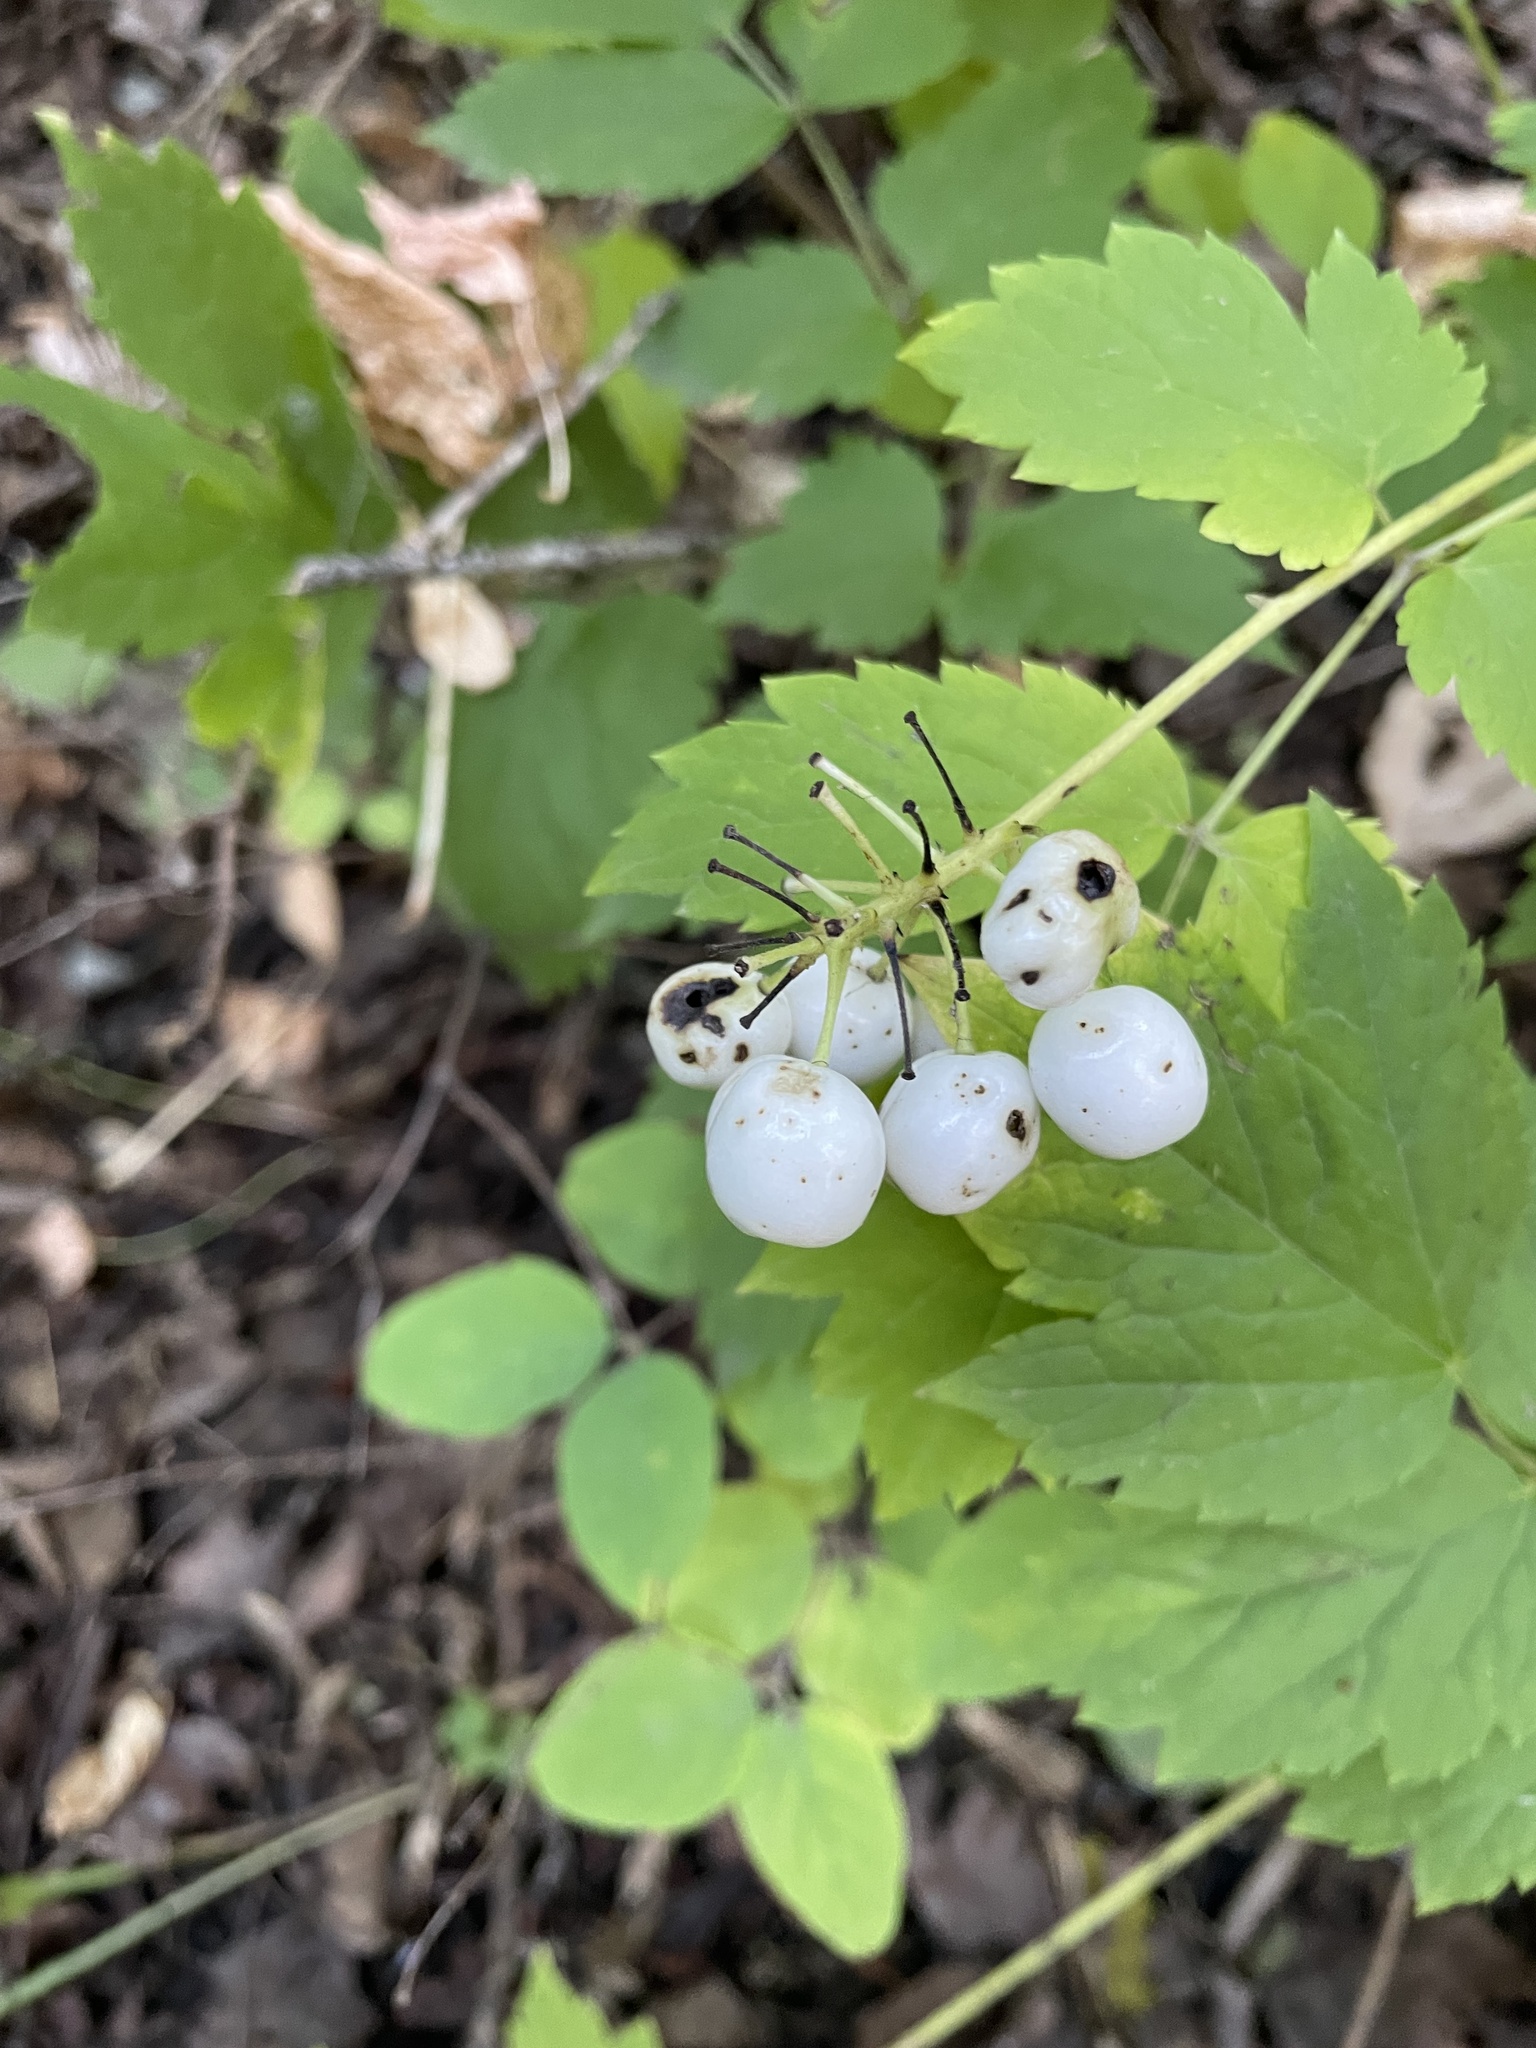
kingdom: Plantae
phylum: Tracheophyta
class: Magnoliopsida
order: Ranunculales
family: Ranunculaceae
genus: Actaea
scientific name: Actaea rubra
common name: Red baneberry
